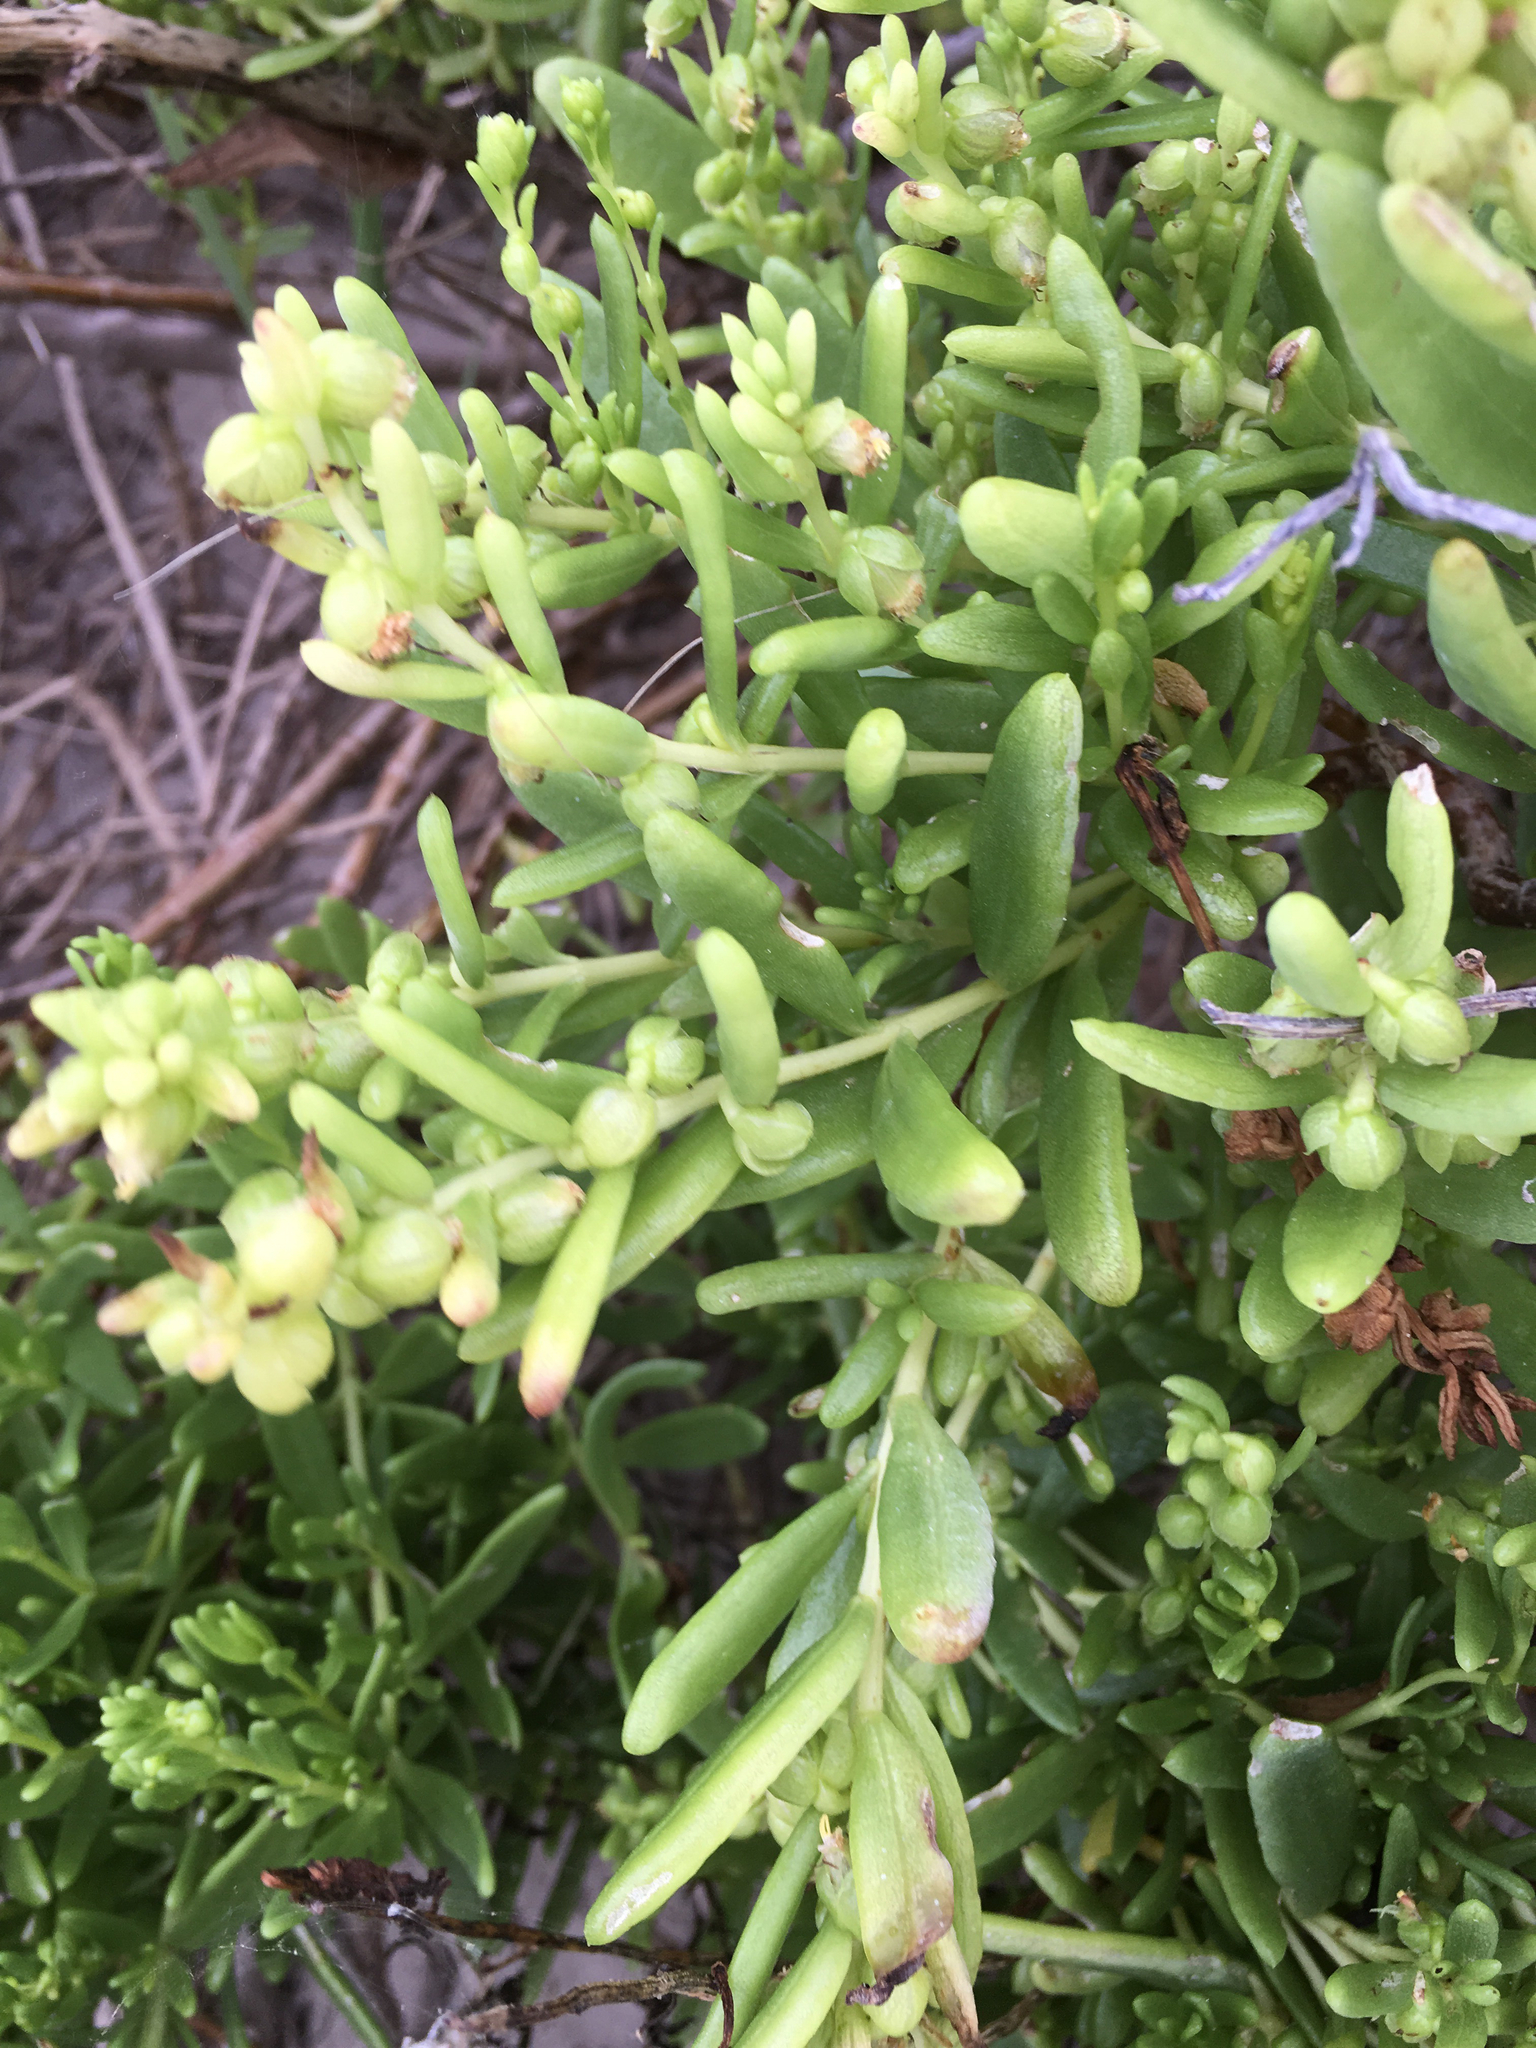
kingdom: Plantae
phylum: Tracheophyta
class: Magnoliopsida
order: Asterales
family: Asteraceae
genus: Iva
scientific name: Iva imbricata
